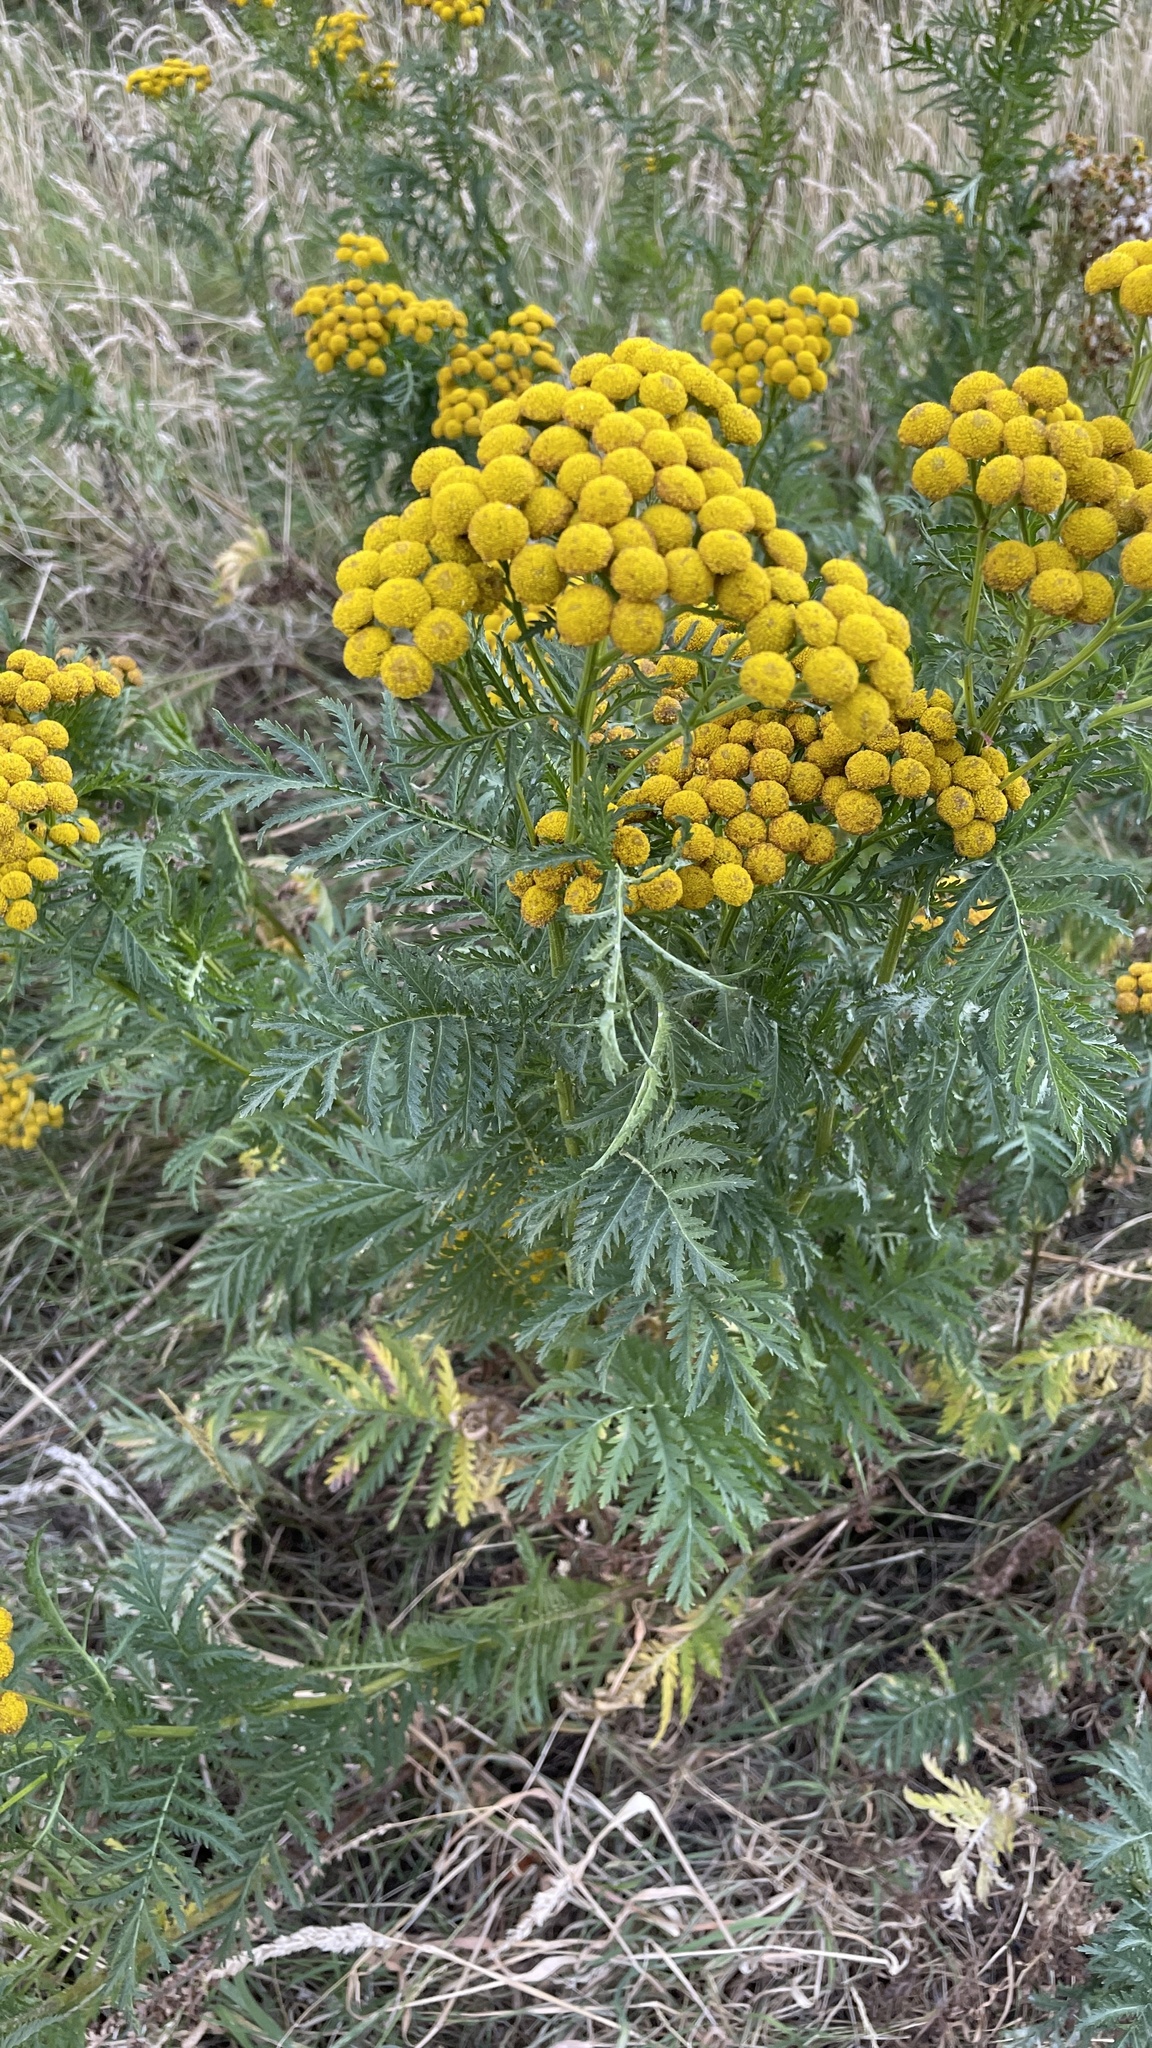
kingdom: Plantae
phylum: Tracheophyta
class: Magnoliopsida
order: Asterales
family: Asteraceae
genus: Tanacetum
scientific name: Tanacetum vulgare
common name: Common tansy
